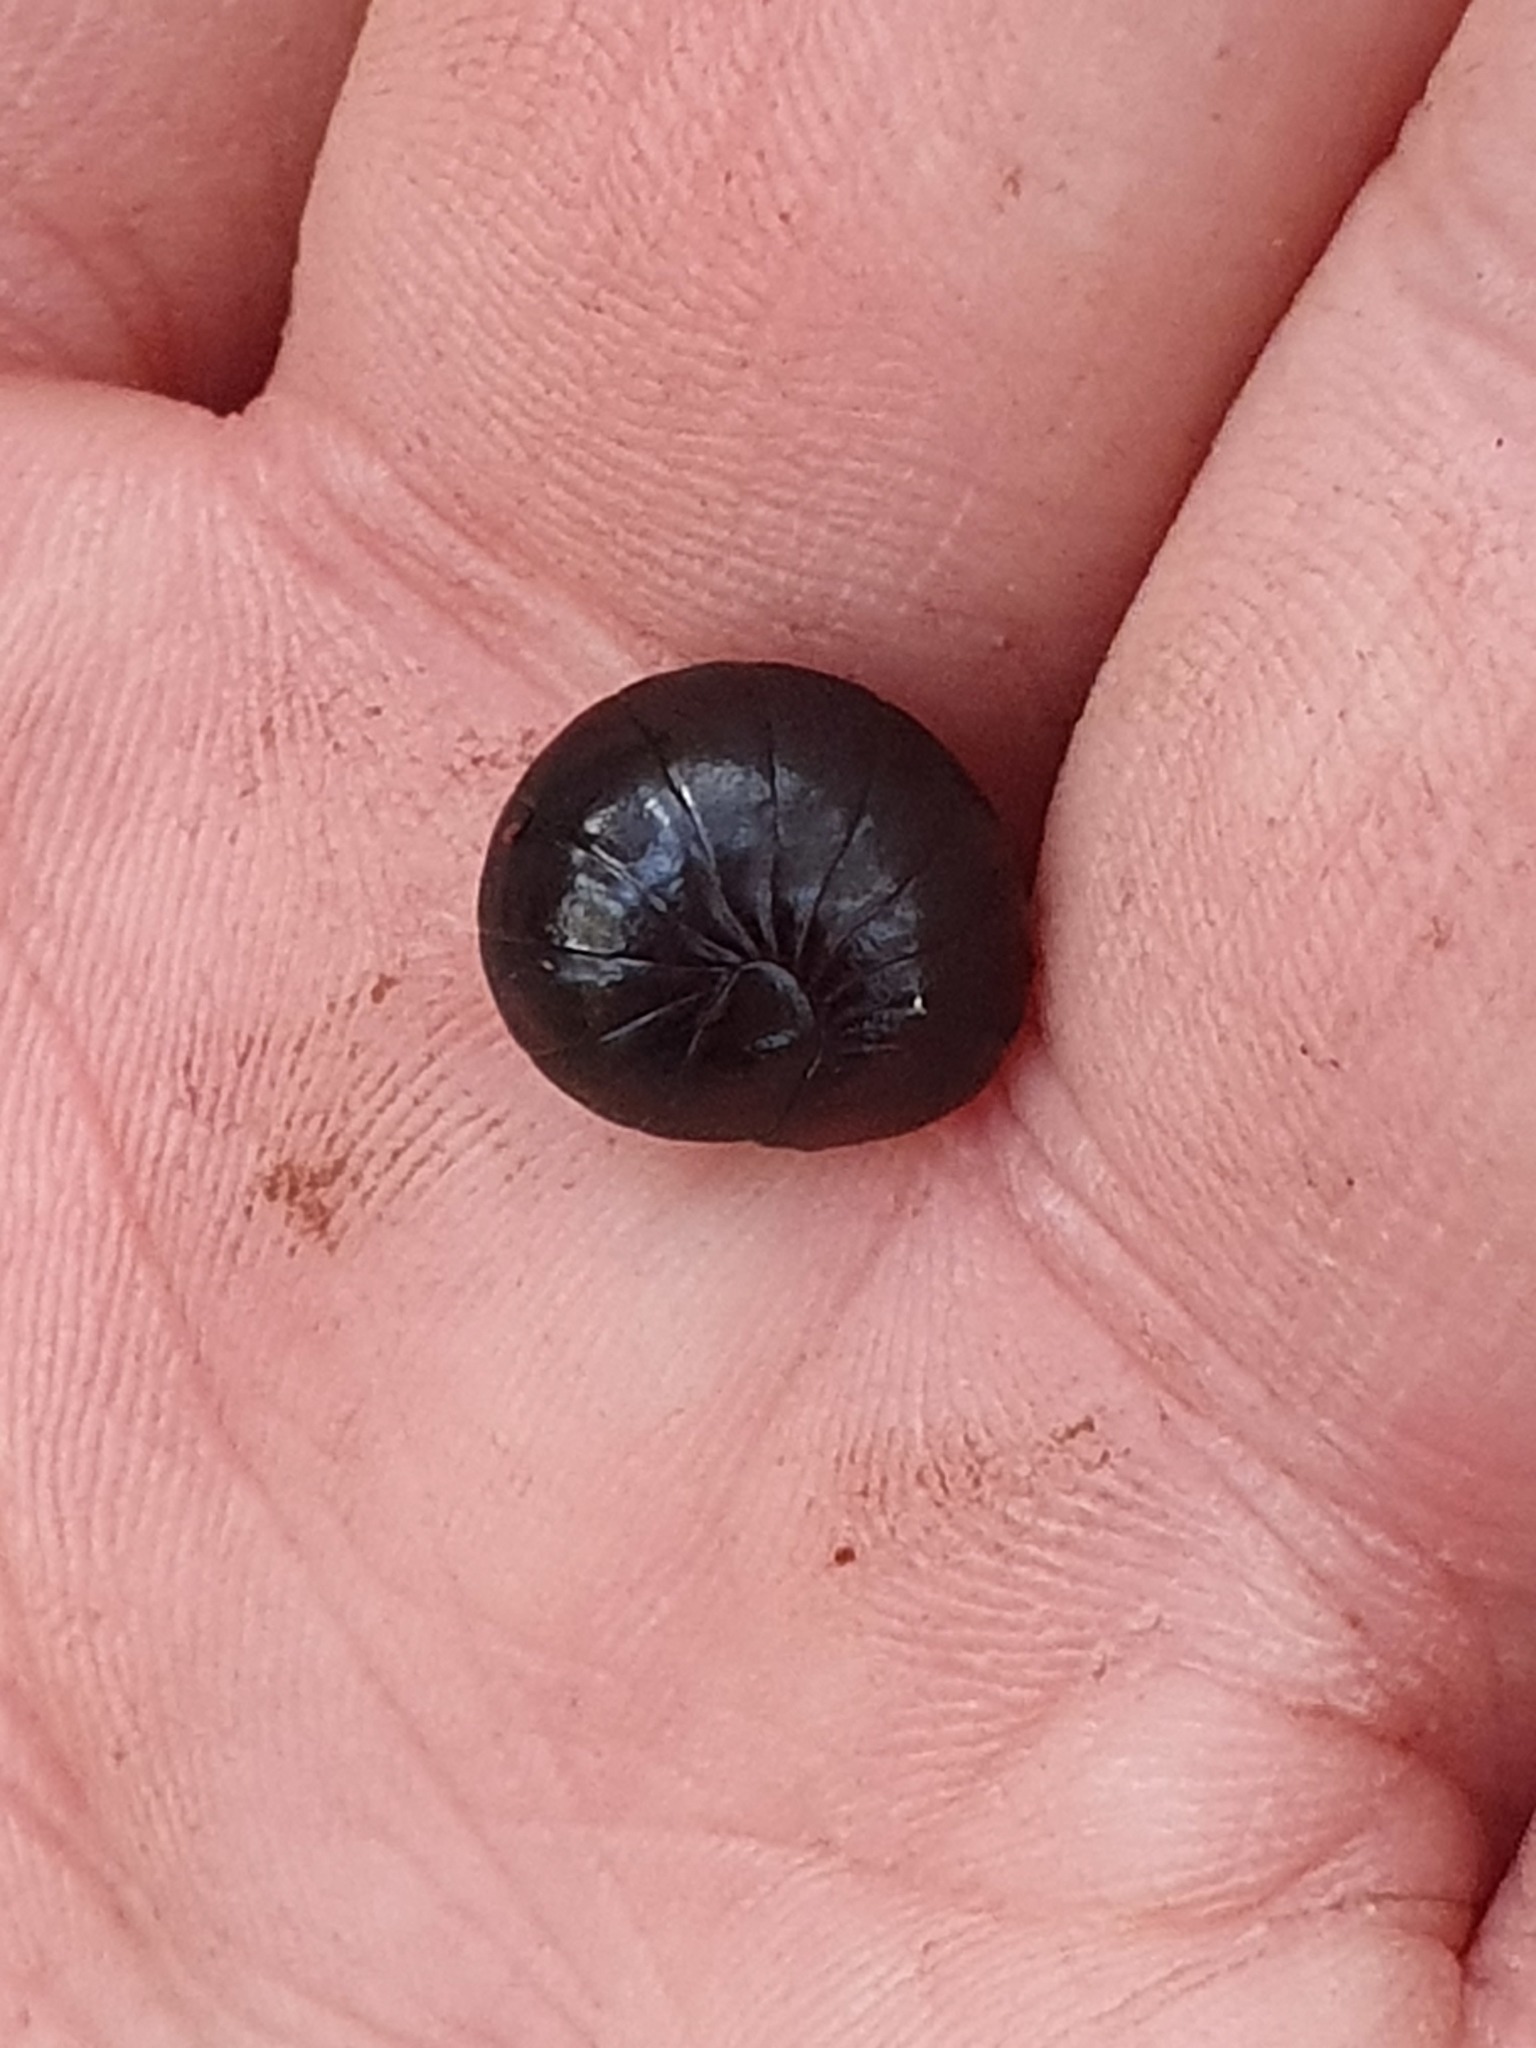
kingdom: Animalia
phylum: Arthropoda
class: Diplopoda
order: Sphaerotheriida
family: Cyliosomatidae
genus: Cynotelopus
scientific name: Cynotelopus notabilis
